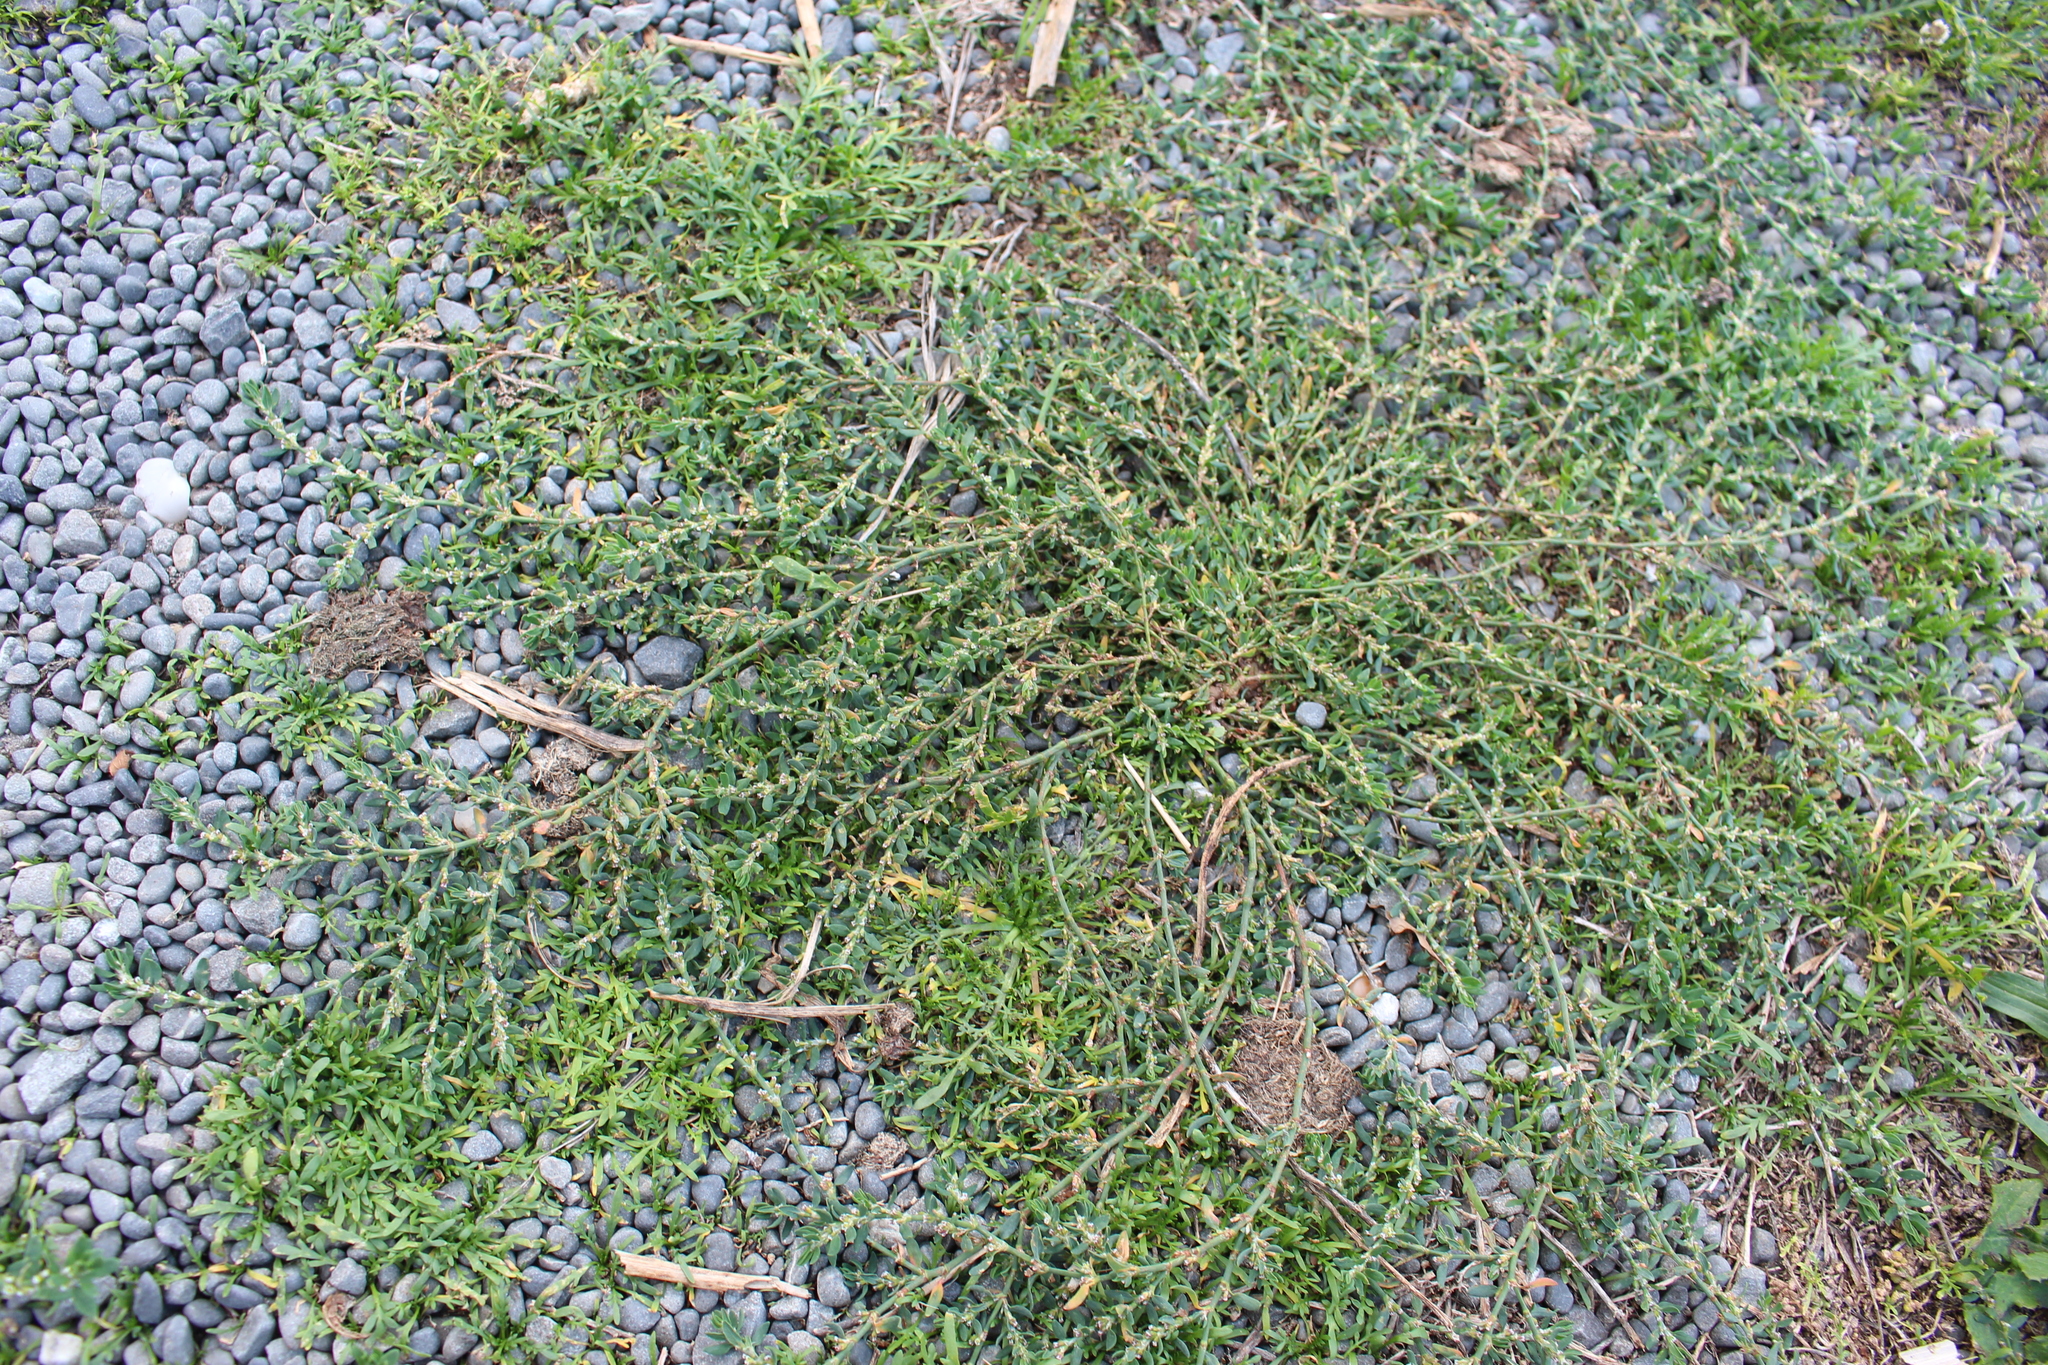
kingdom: Plantae
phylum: Tracheophyta
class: Magnoliopsida
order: Caryophyllales
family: Polygonaceae
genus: Polygonum
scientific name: Polygonum arenastrum
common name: Equal-leaved knotgrass
